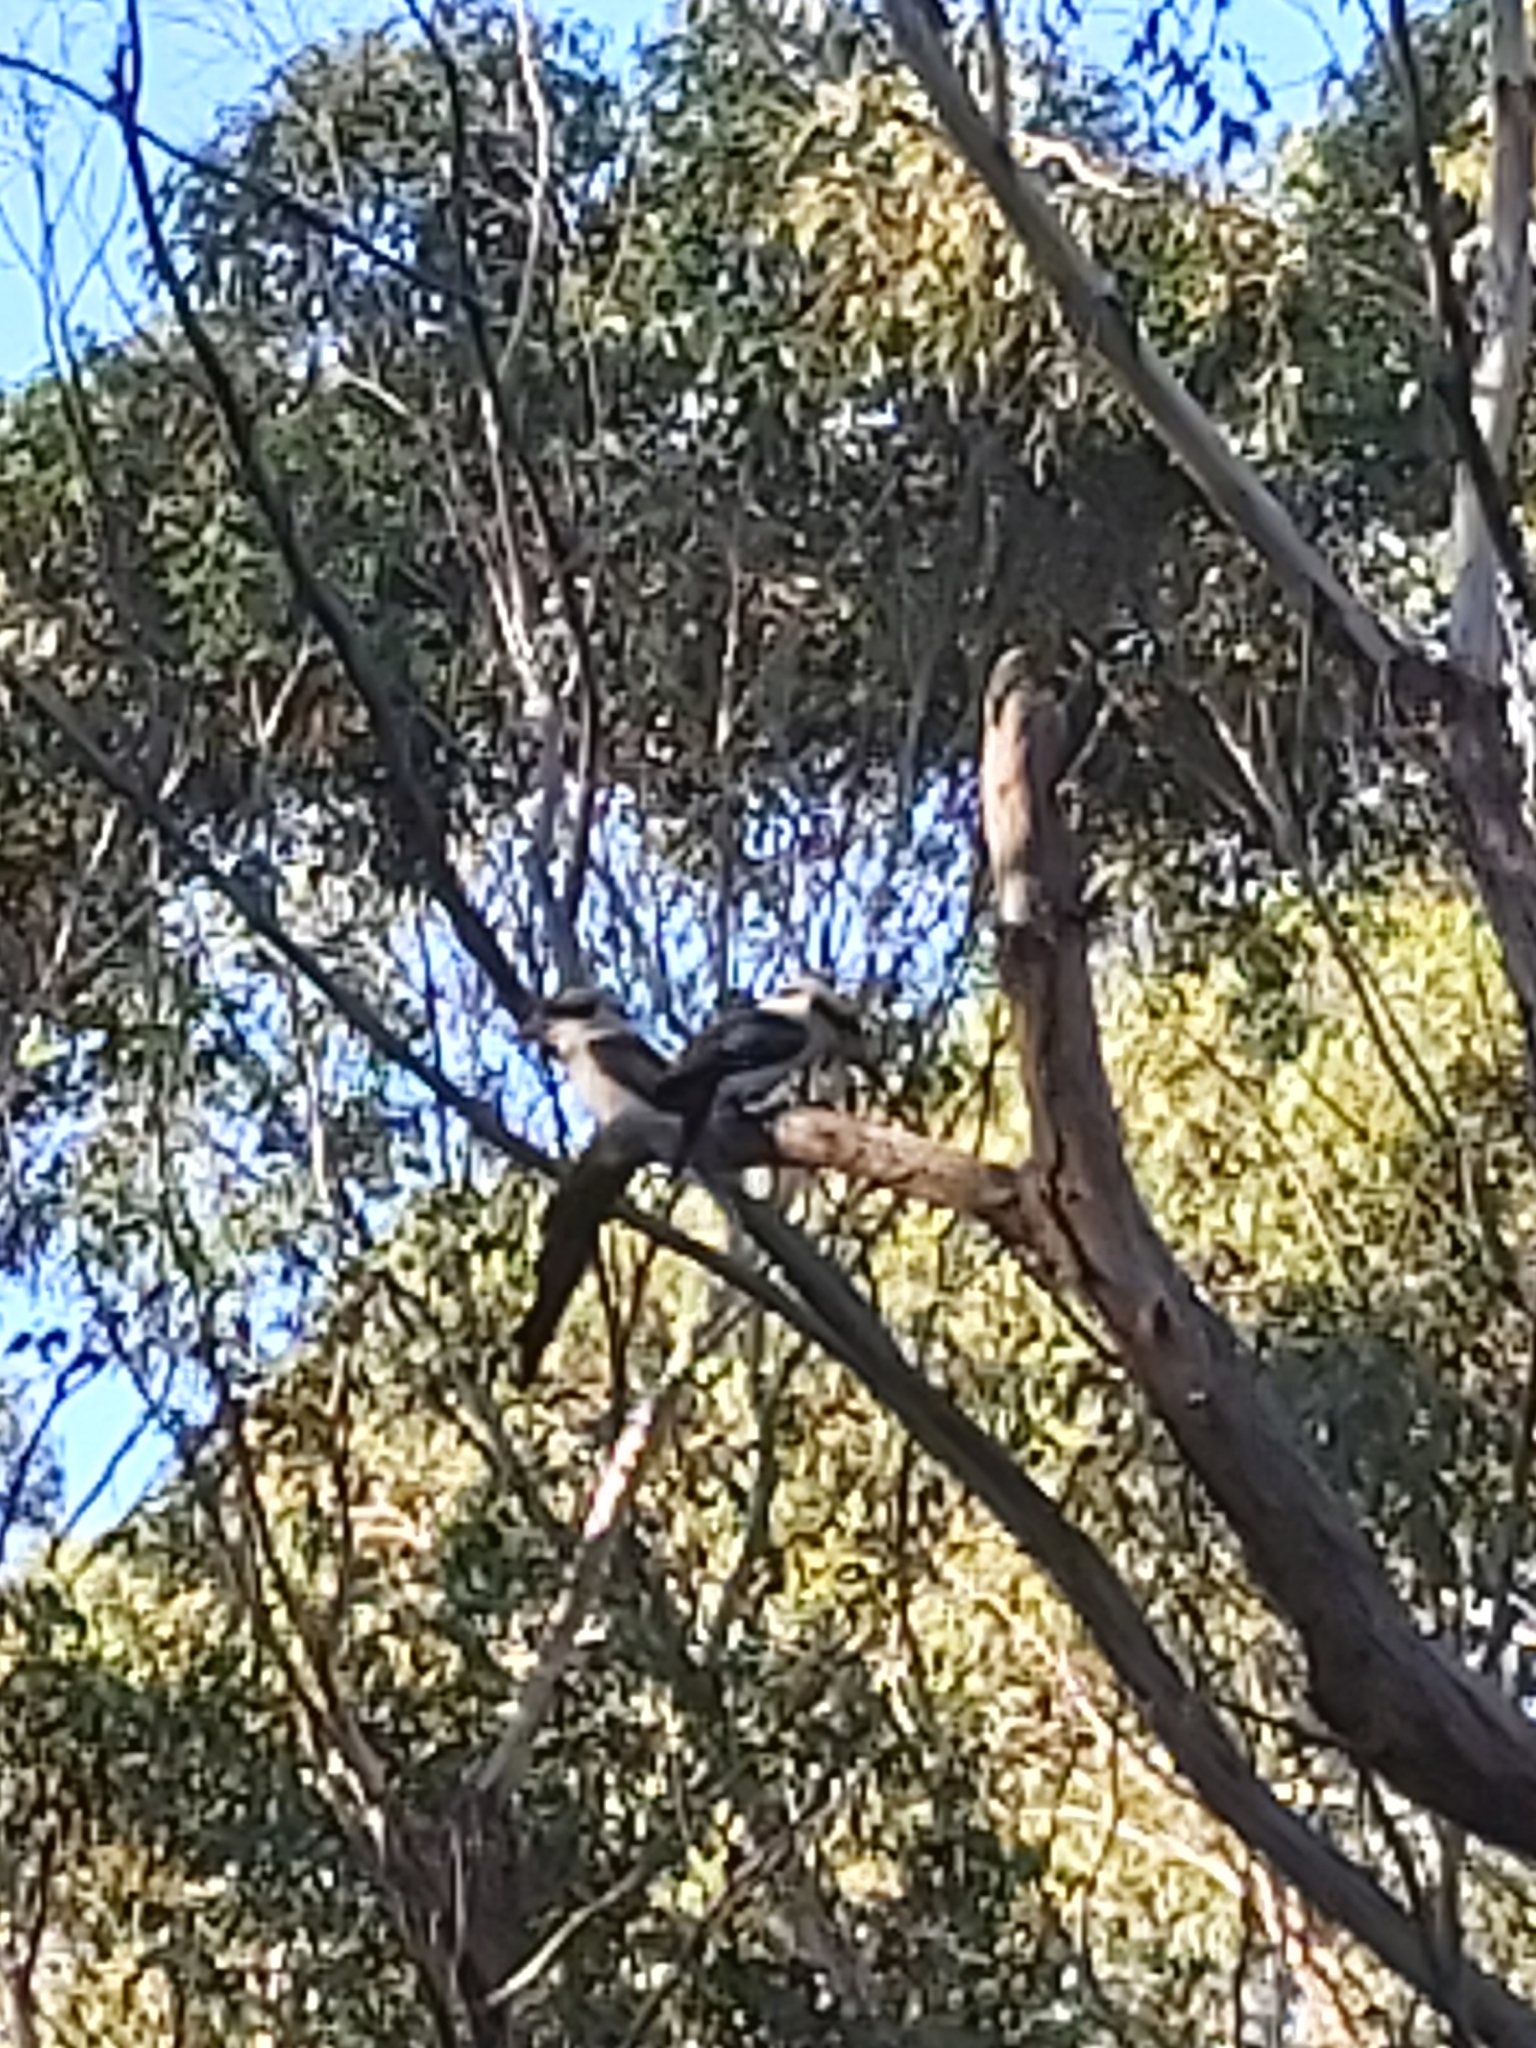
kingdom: Animalia
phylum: Chordata
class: Aves
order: Coraciiformes
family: Alcedinidae
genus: Dacelo
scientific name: Dacelo novaeguineae
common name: Laughing kookaburra
